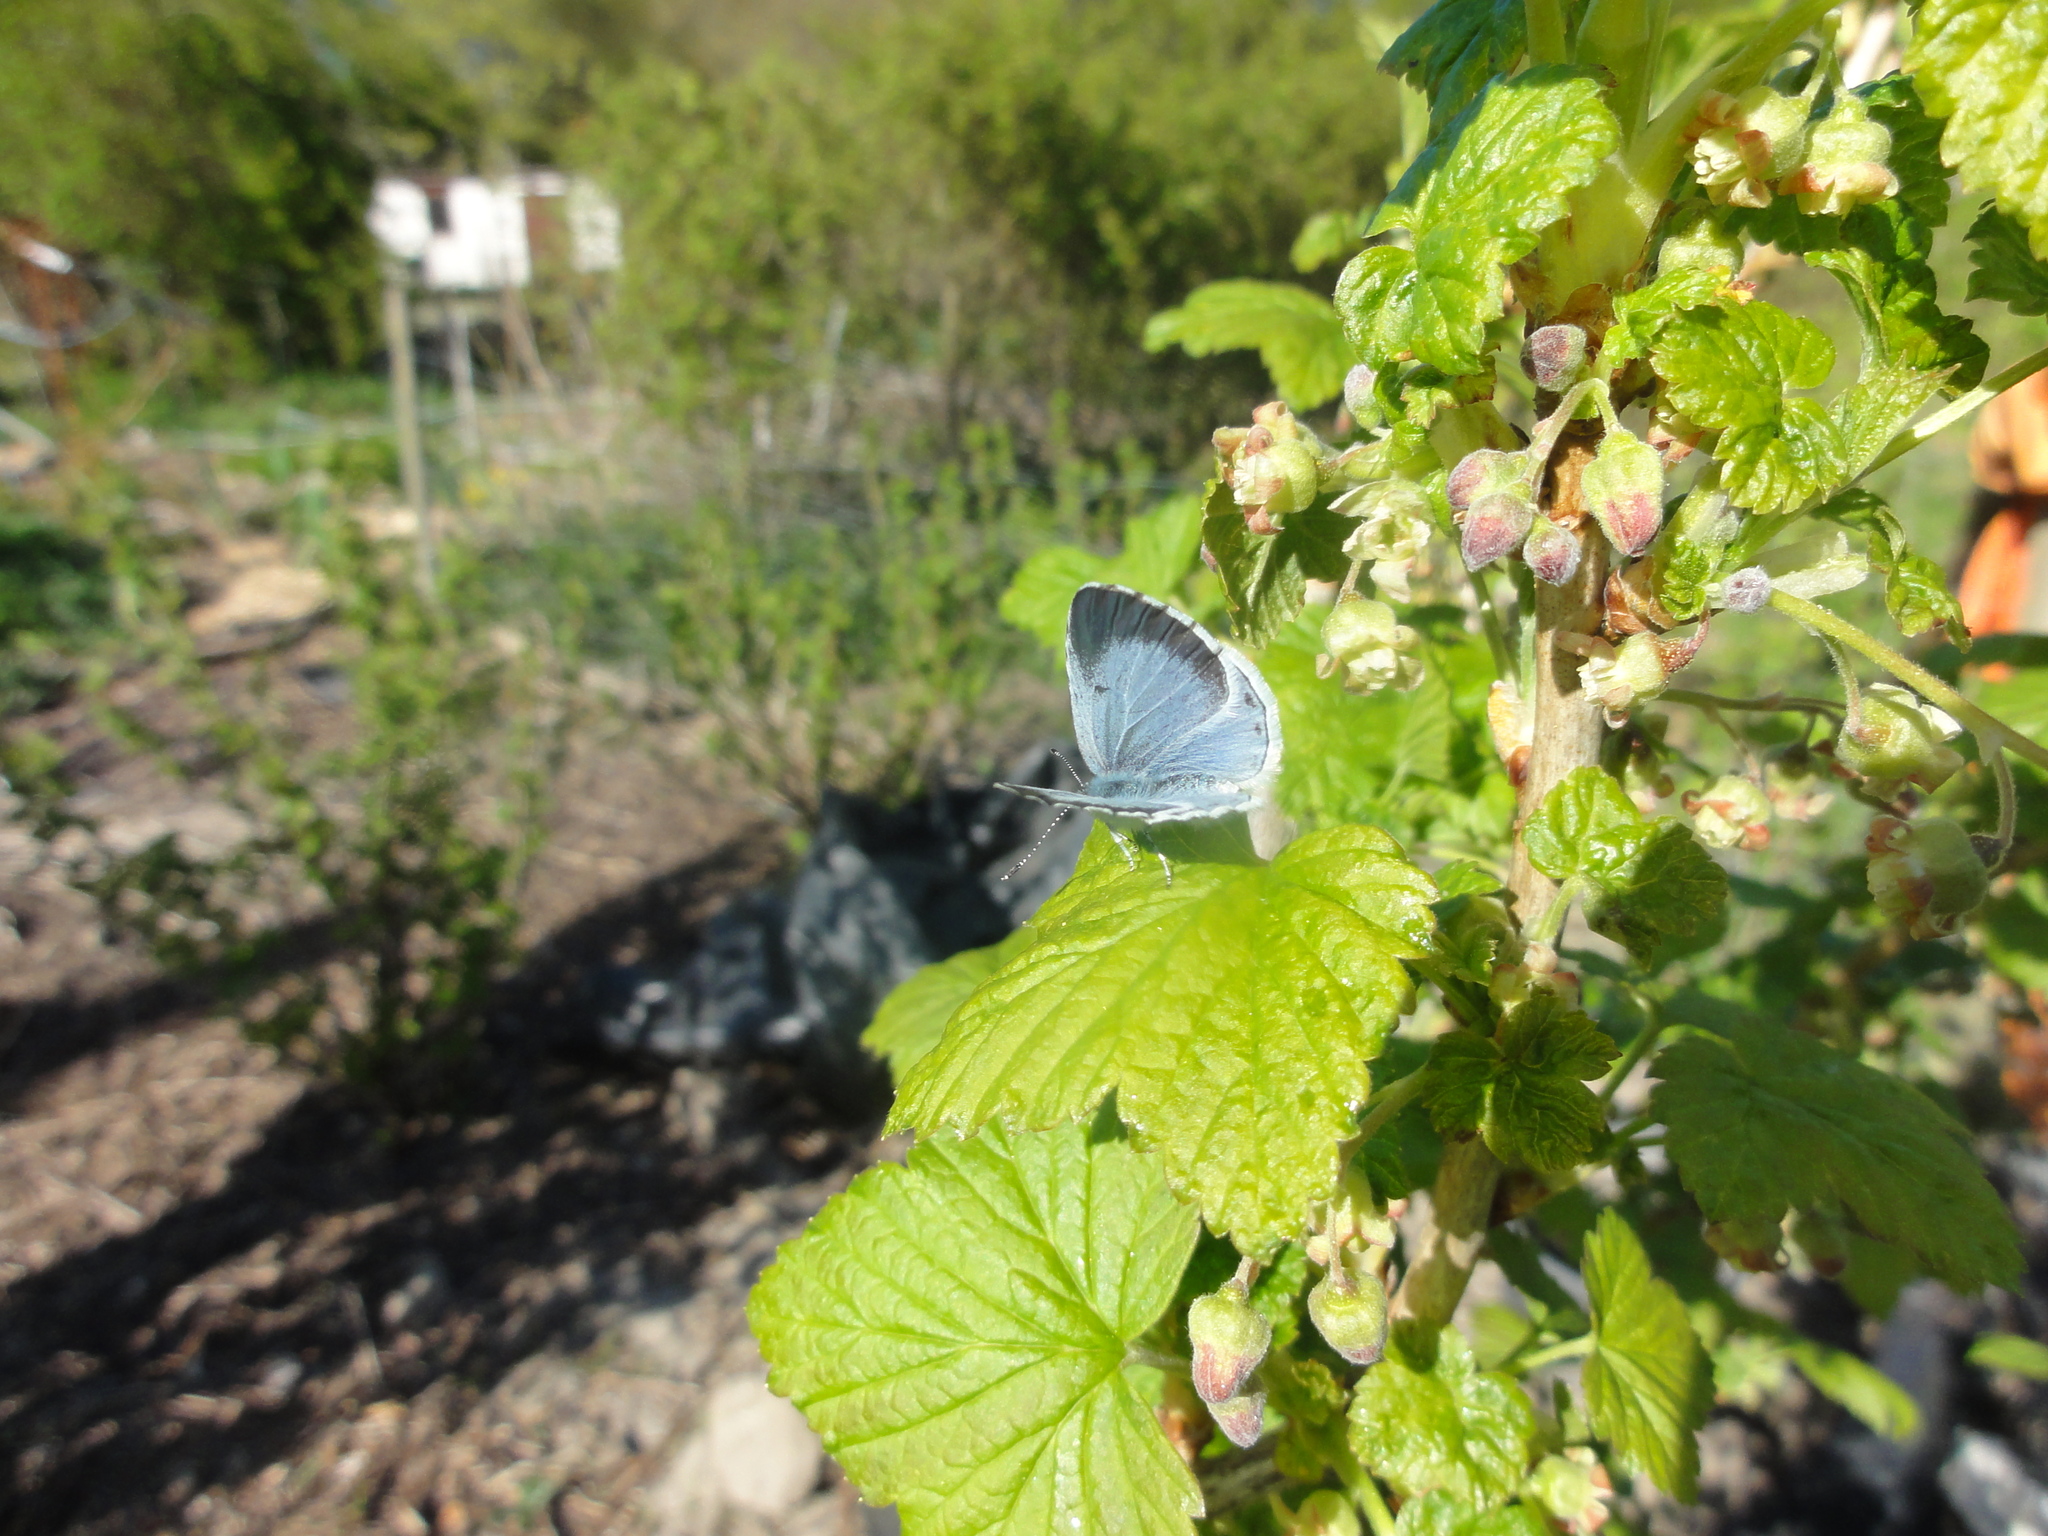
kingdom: Animalia
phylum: Arthropoda
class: Insecta
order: Lepidoptera
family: Lycaenidae
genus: Celastrina
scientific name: Celastrina argiolus
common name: Holly blue
